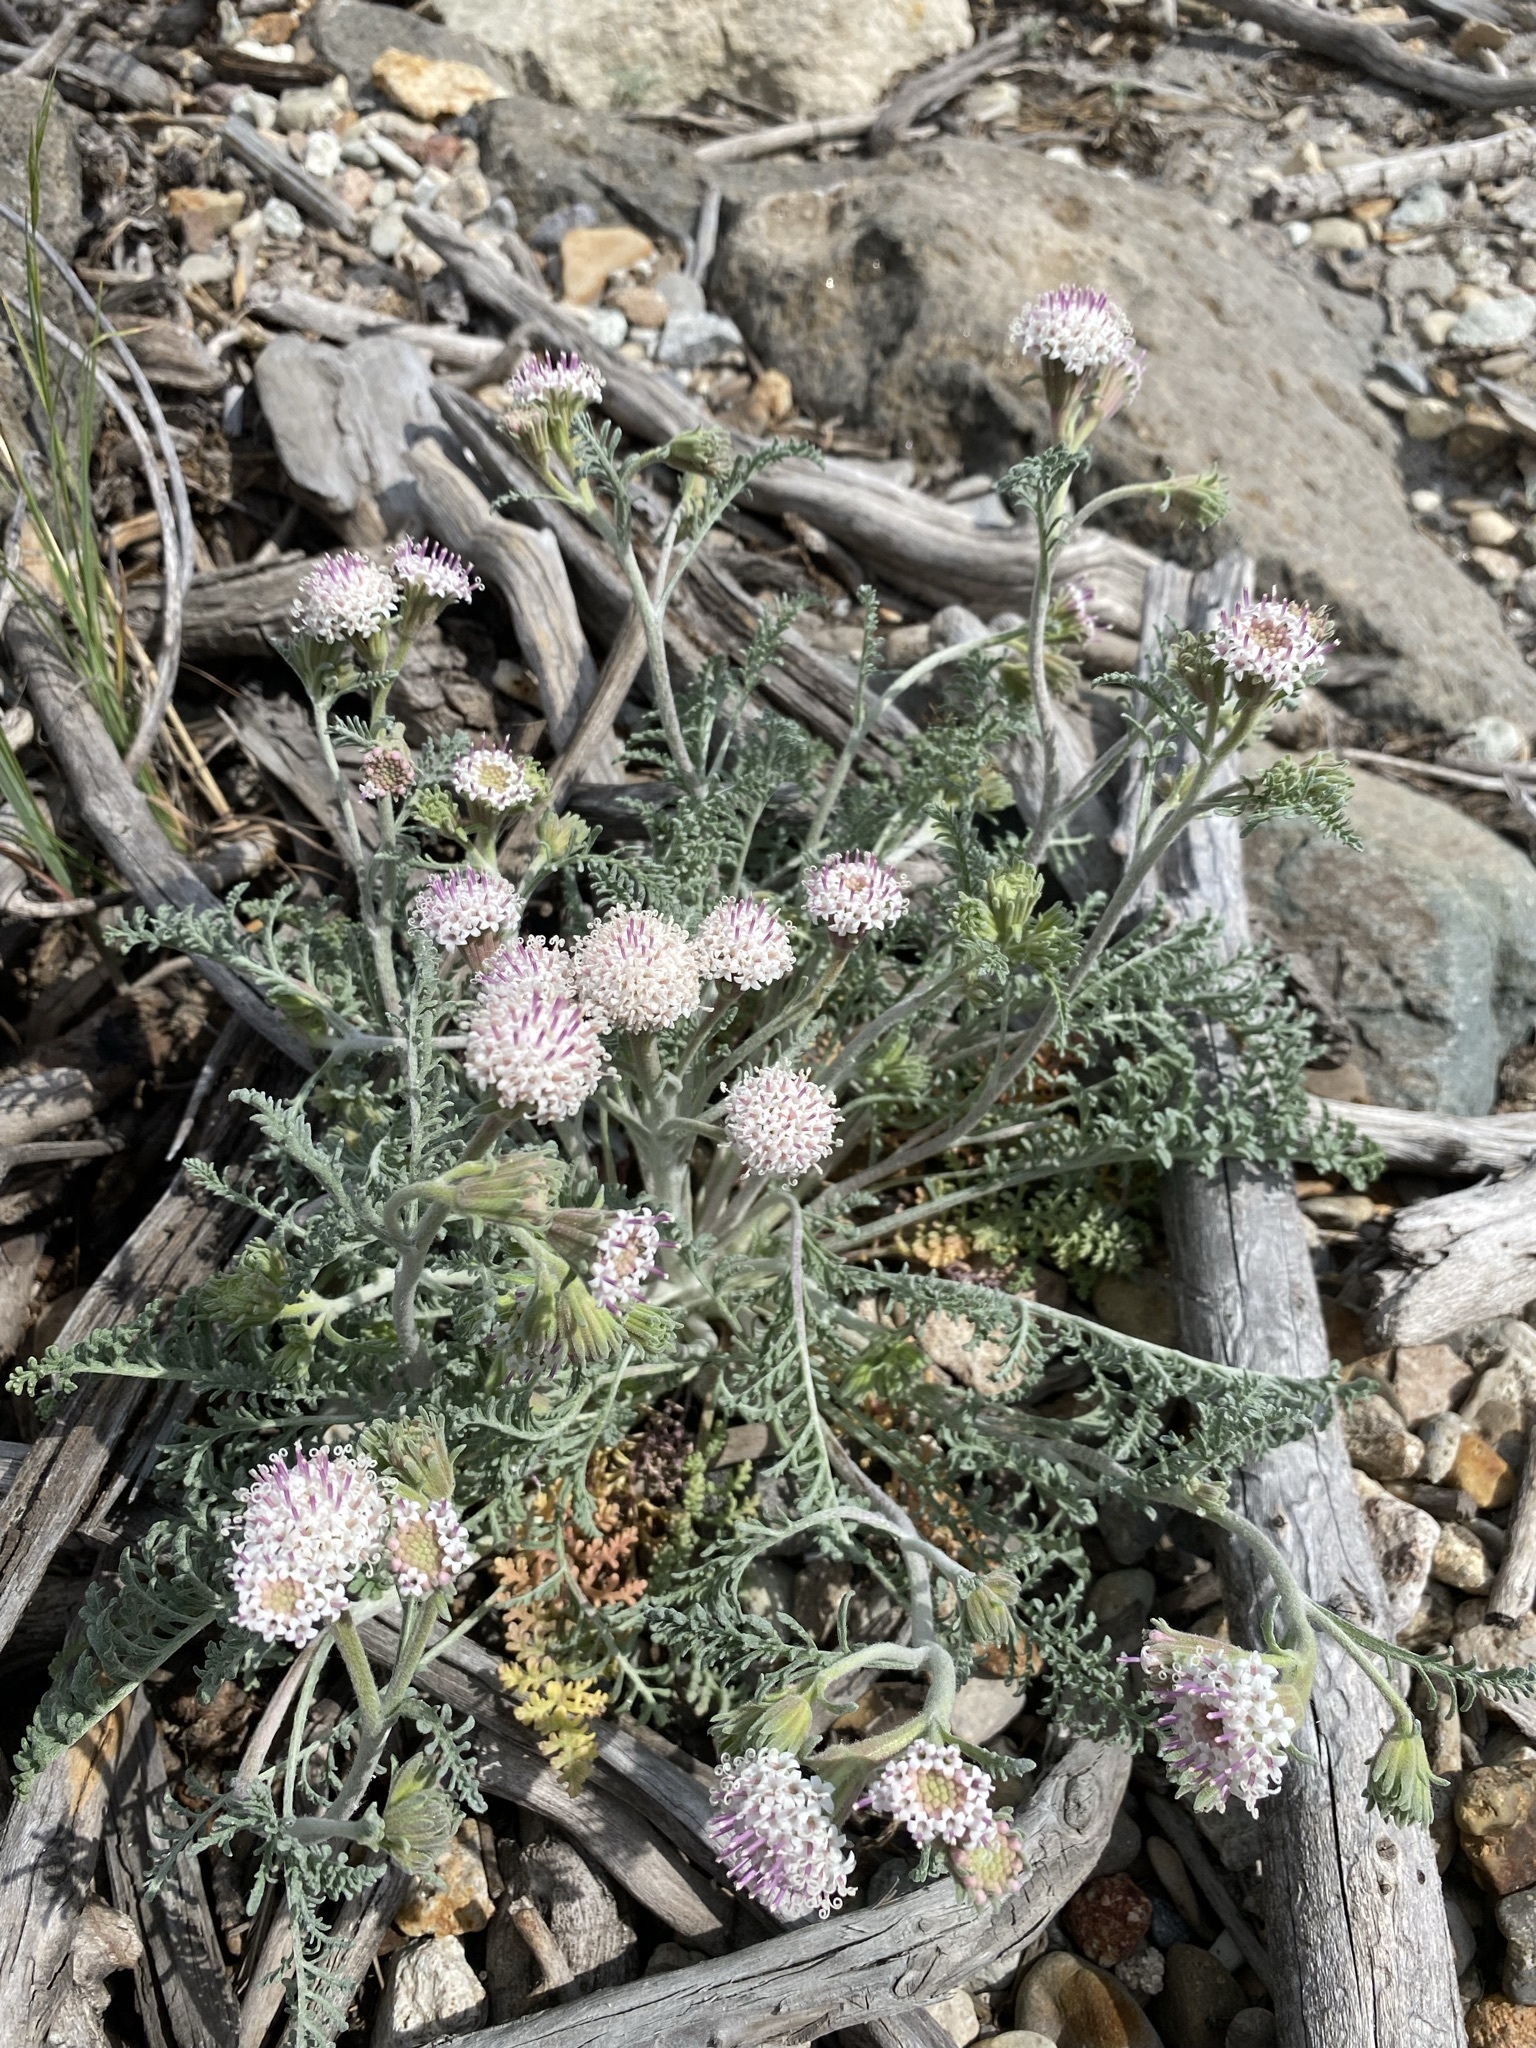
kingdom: Plantae
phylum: Tracheophyta
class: Magnoliopsida
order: Asterales
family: Asteraceae
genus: Chaenactis
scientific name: Chaenactis douglasii
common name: Hoary pincushion
